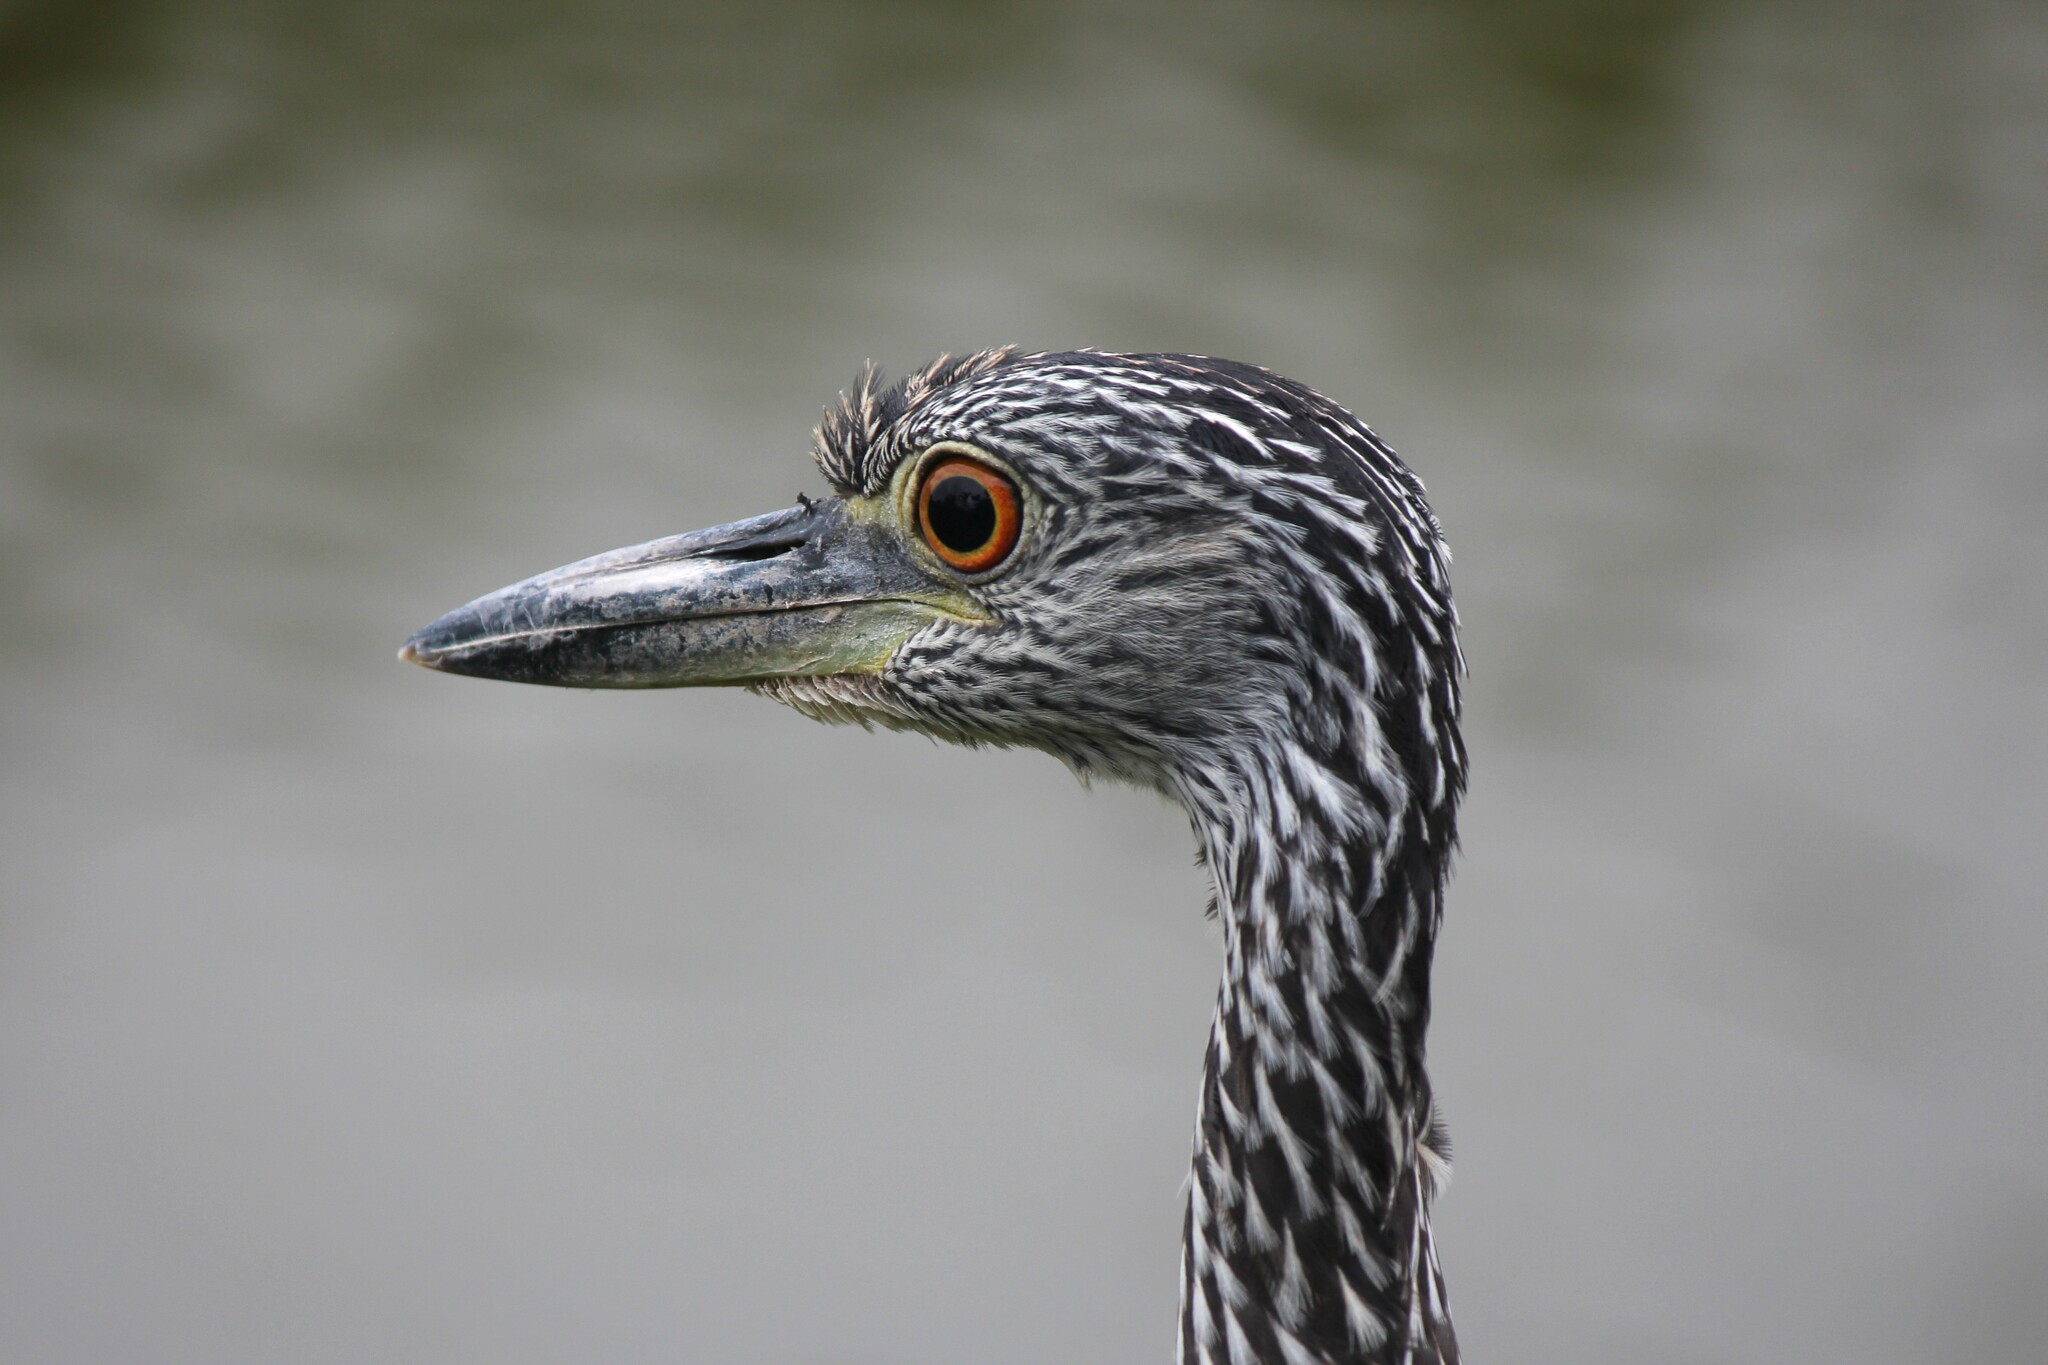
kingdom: Animalia
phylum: Chordata
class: Aves
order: Pelecaniformes
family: Ardeidae
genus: Nyctanassa
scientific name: Nyctanassa violacea
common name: Yellow-crowned night heron
